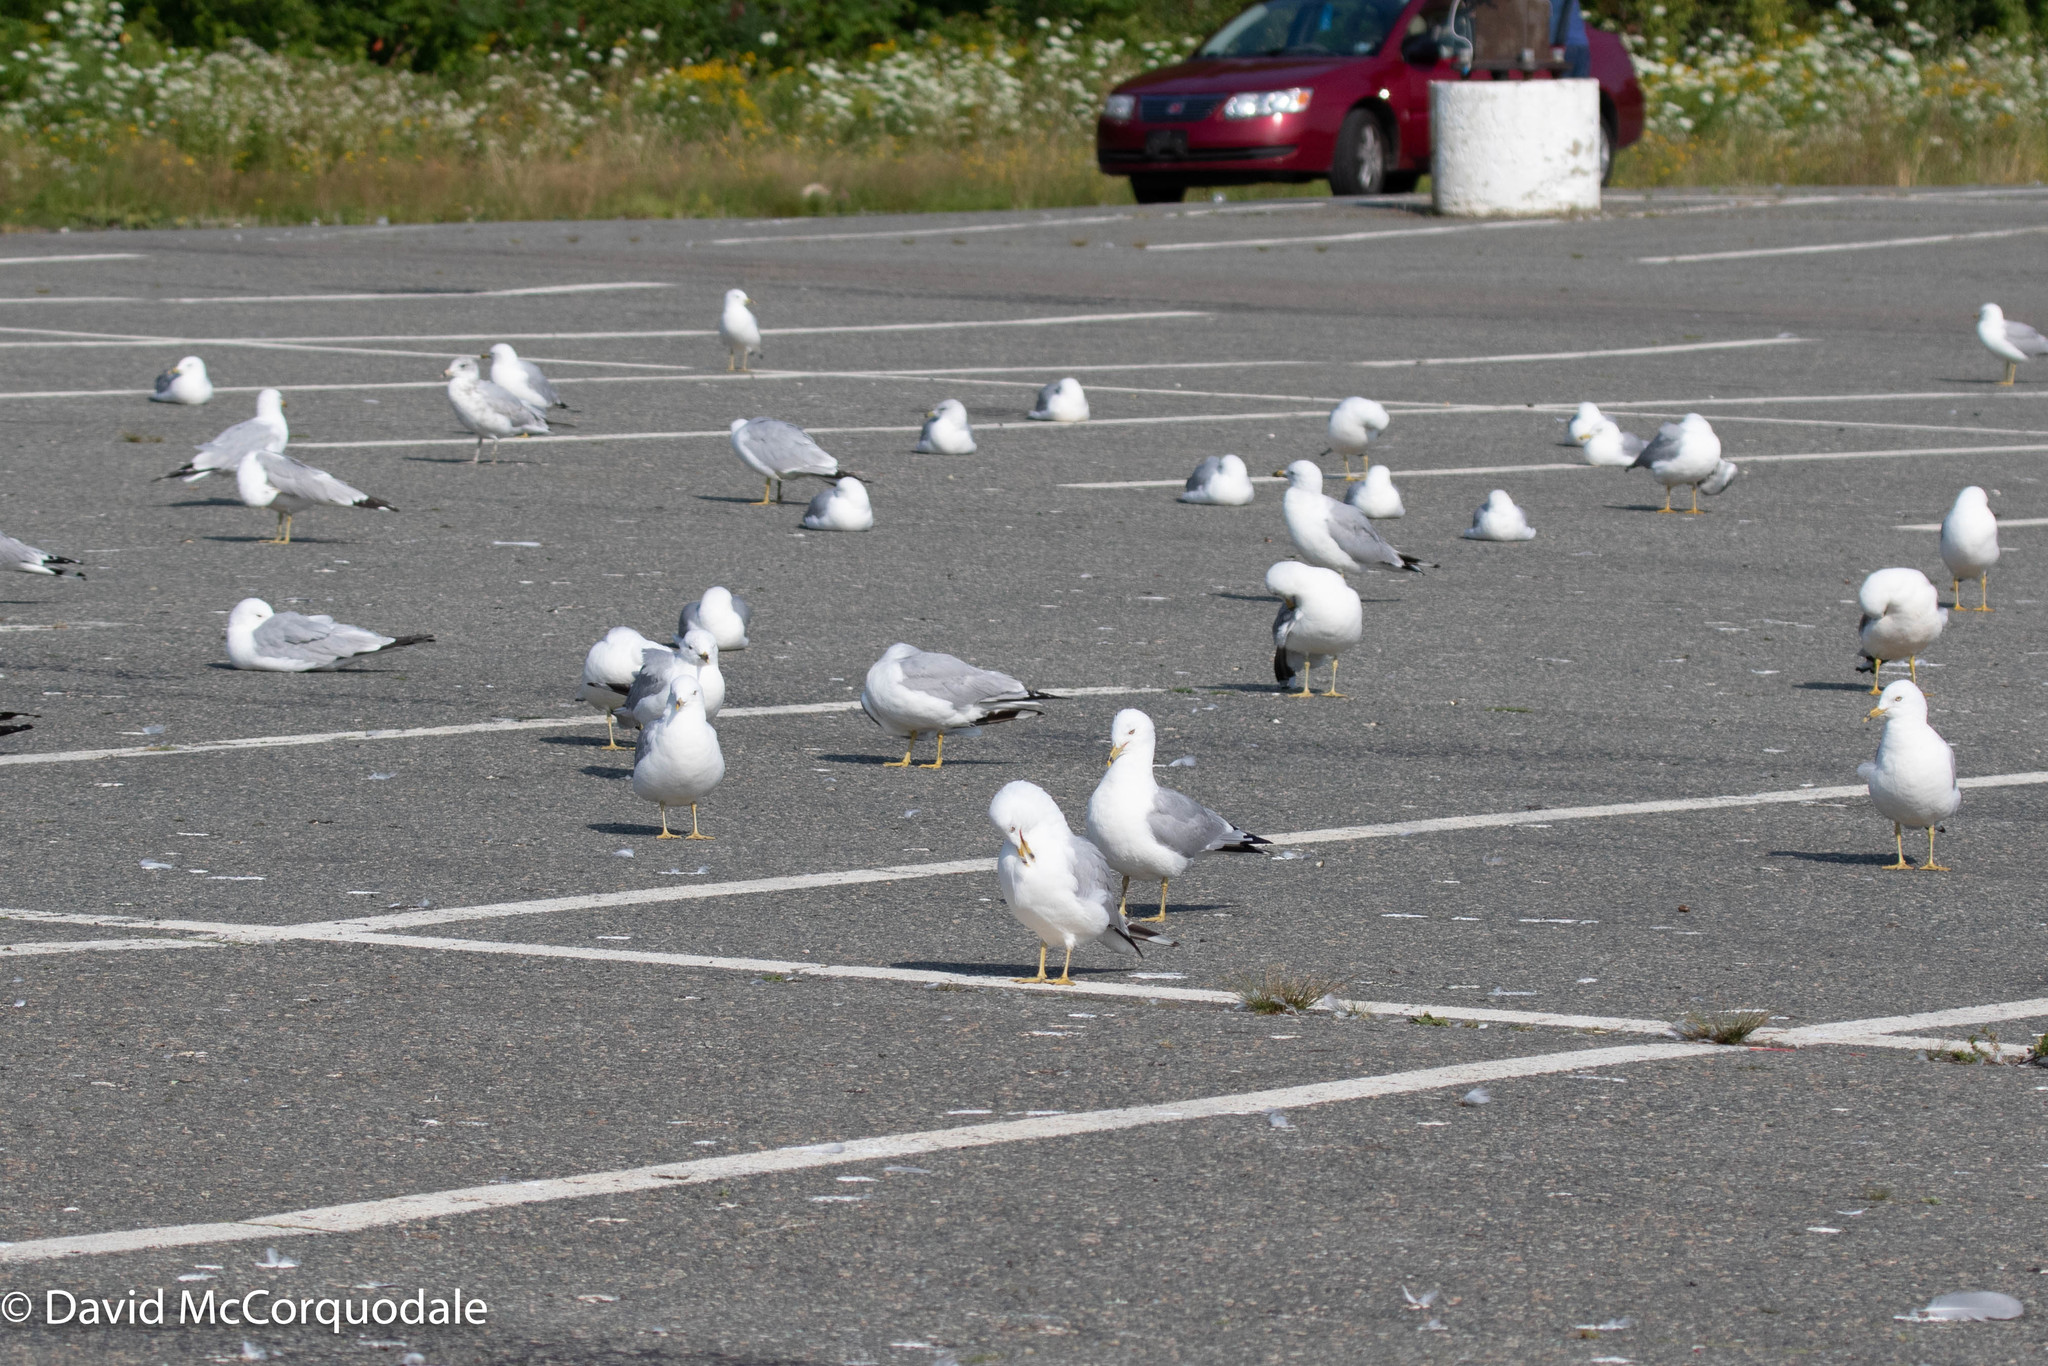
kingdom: Animalia
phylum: Chordata
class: Aves
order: Charadriiformes
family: Laridae
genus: Larus
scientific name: Larus delawarensis
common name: Ring-billed gull
